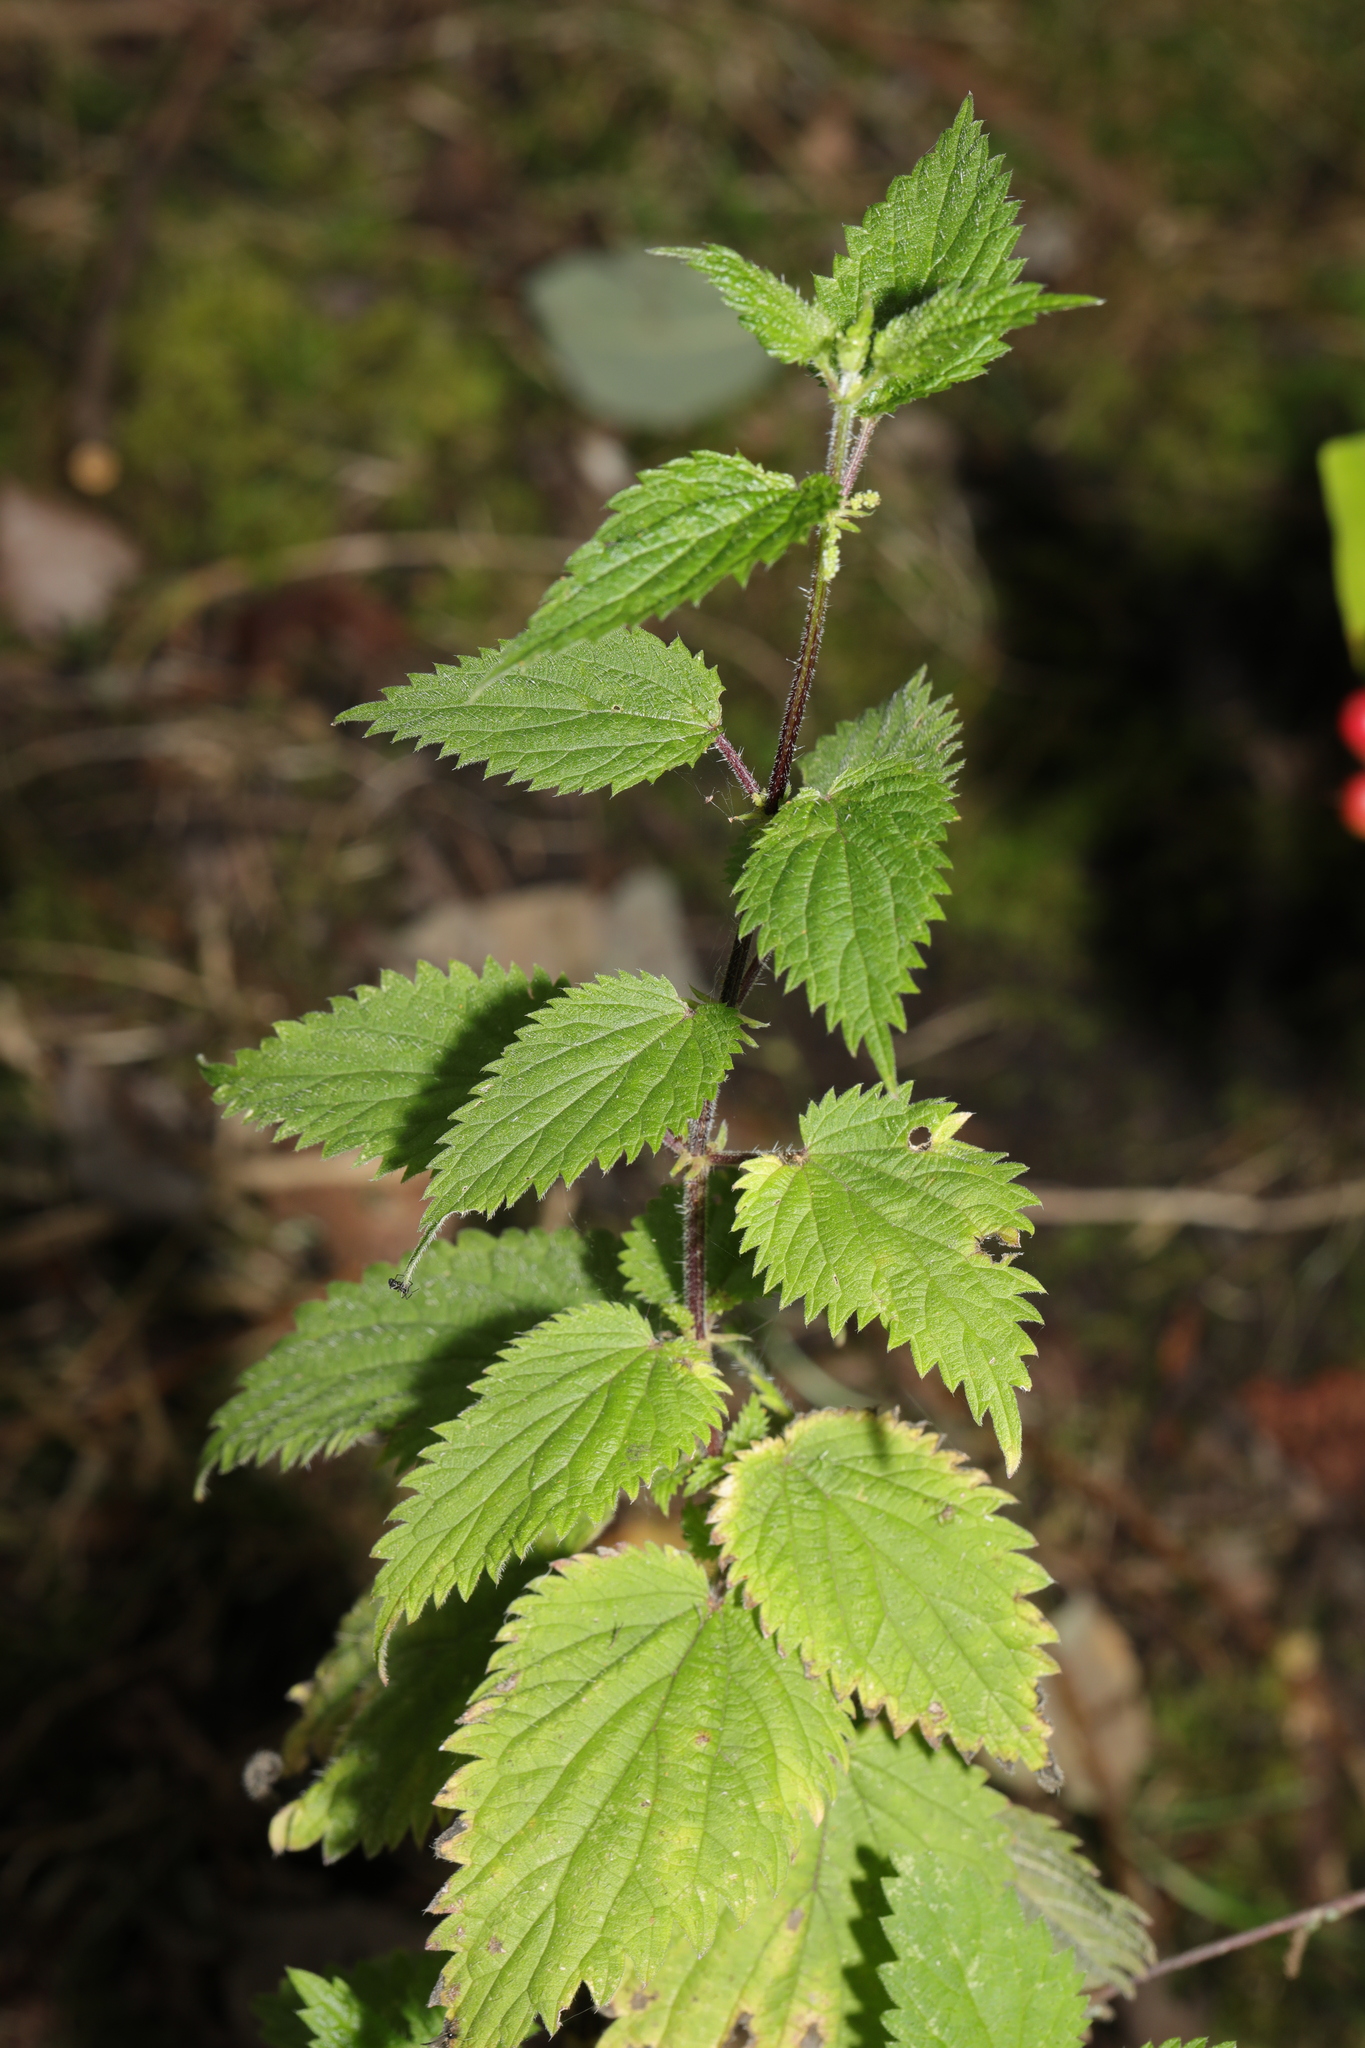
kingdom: Plantae
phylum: Tracheophyta
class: Magnoliopsida
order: Rosales
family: Urticaceae
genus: Urtica
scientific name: Urtica dioica
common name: Common nettle
